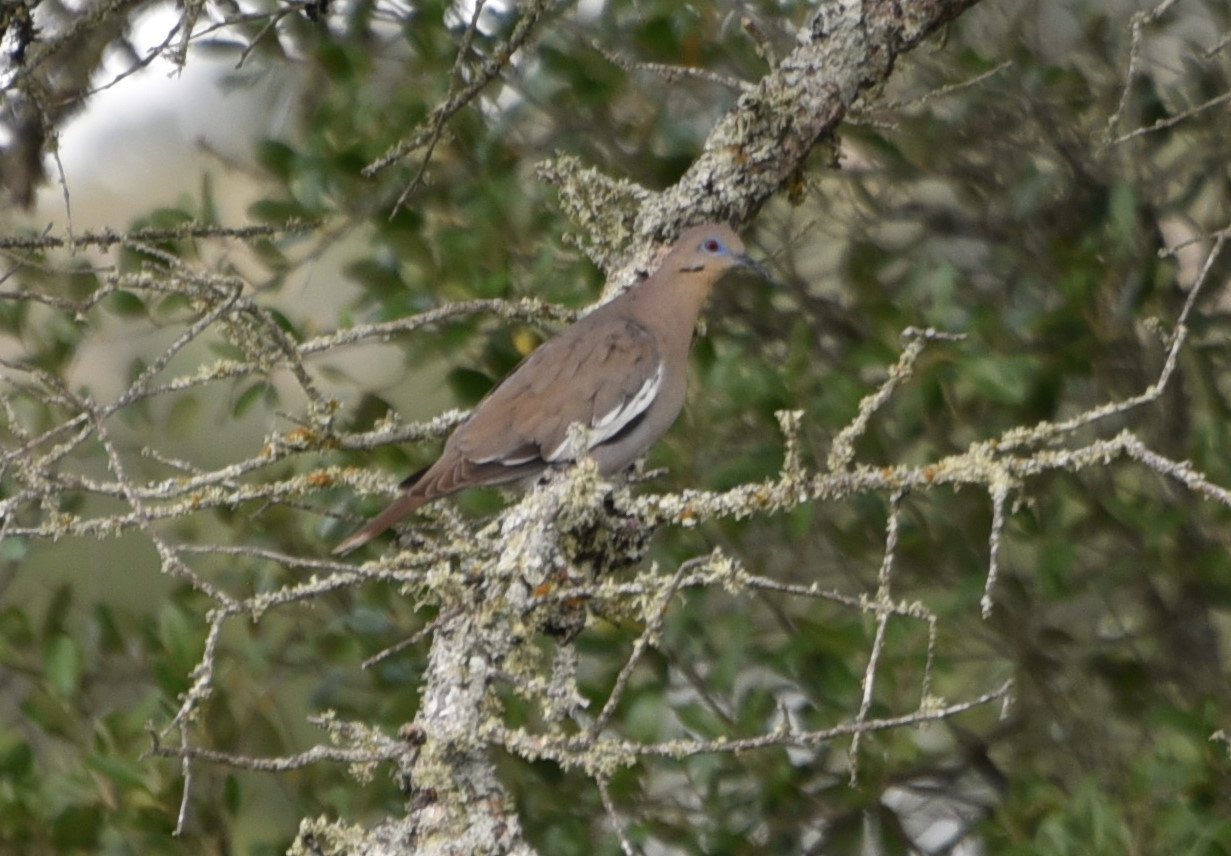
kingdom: Animalia
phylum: Chordata
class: Aves
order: Columbiformes
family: Columbidae
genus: Zenaida
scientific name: Zenaida asiatica
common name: White-winged dove
